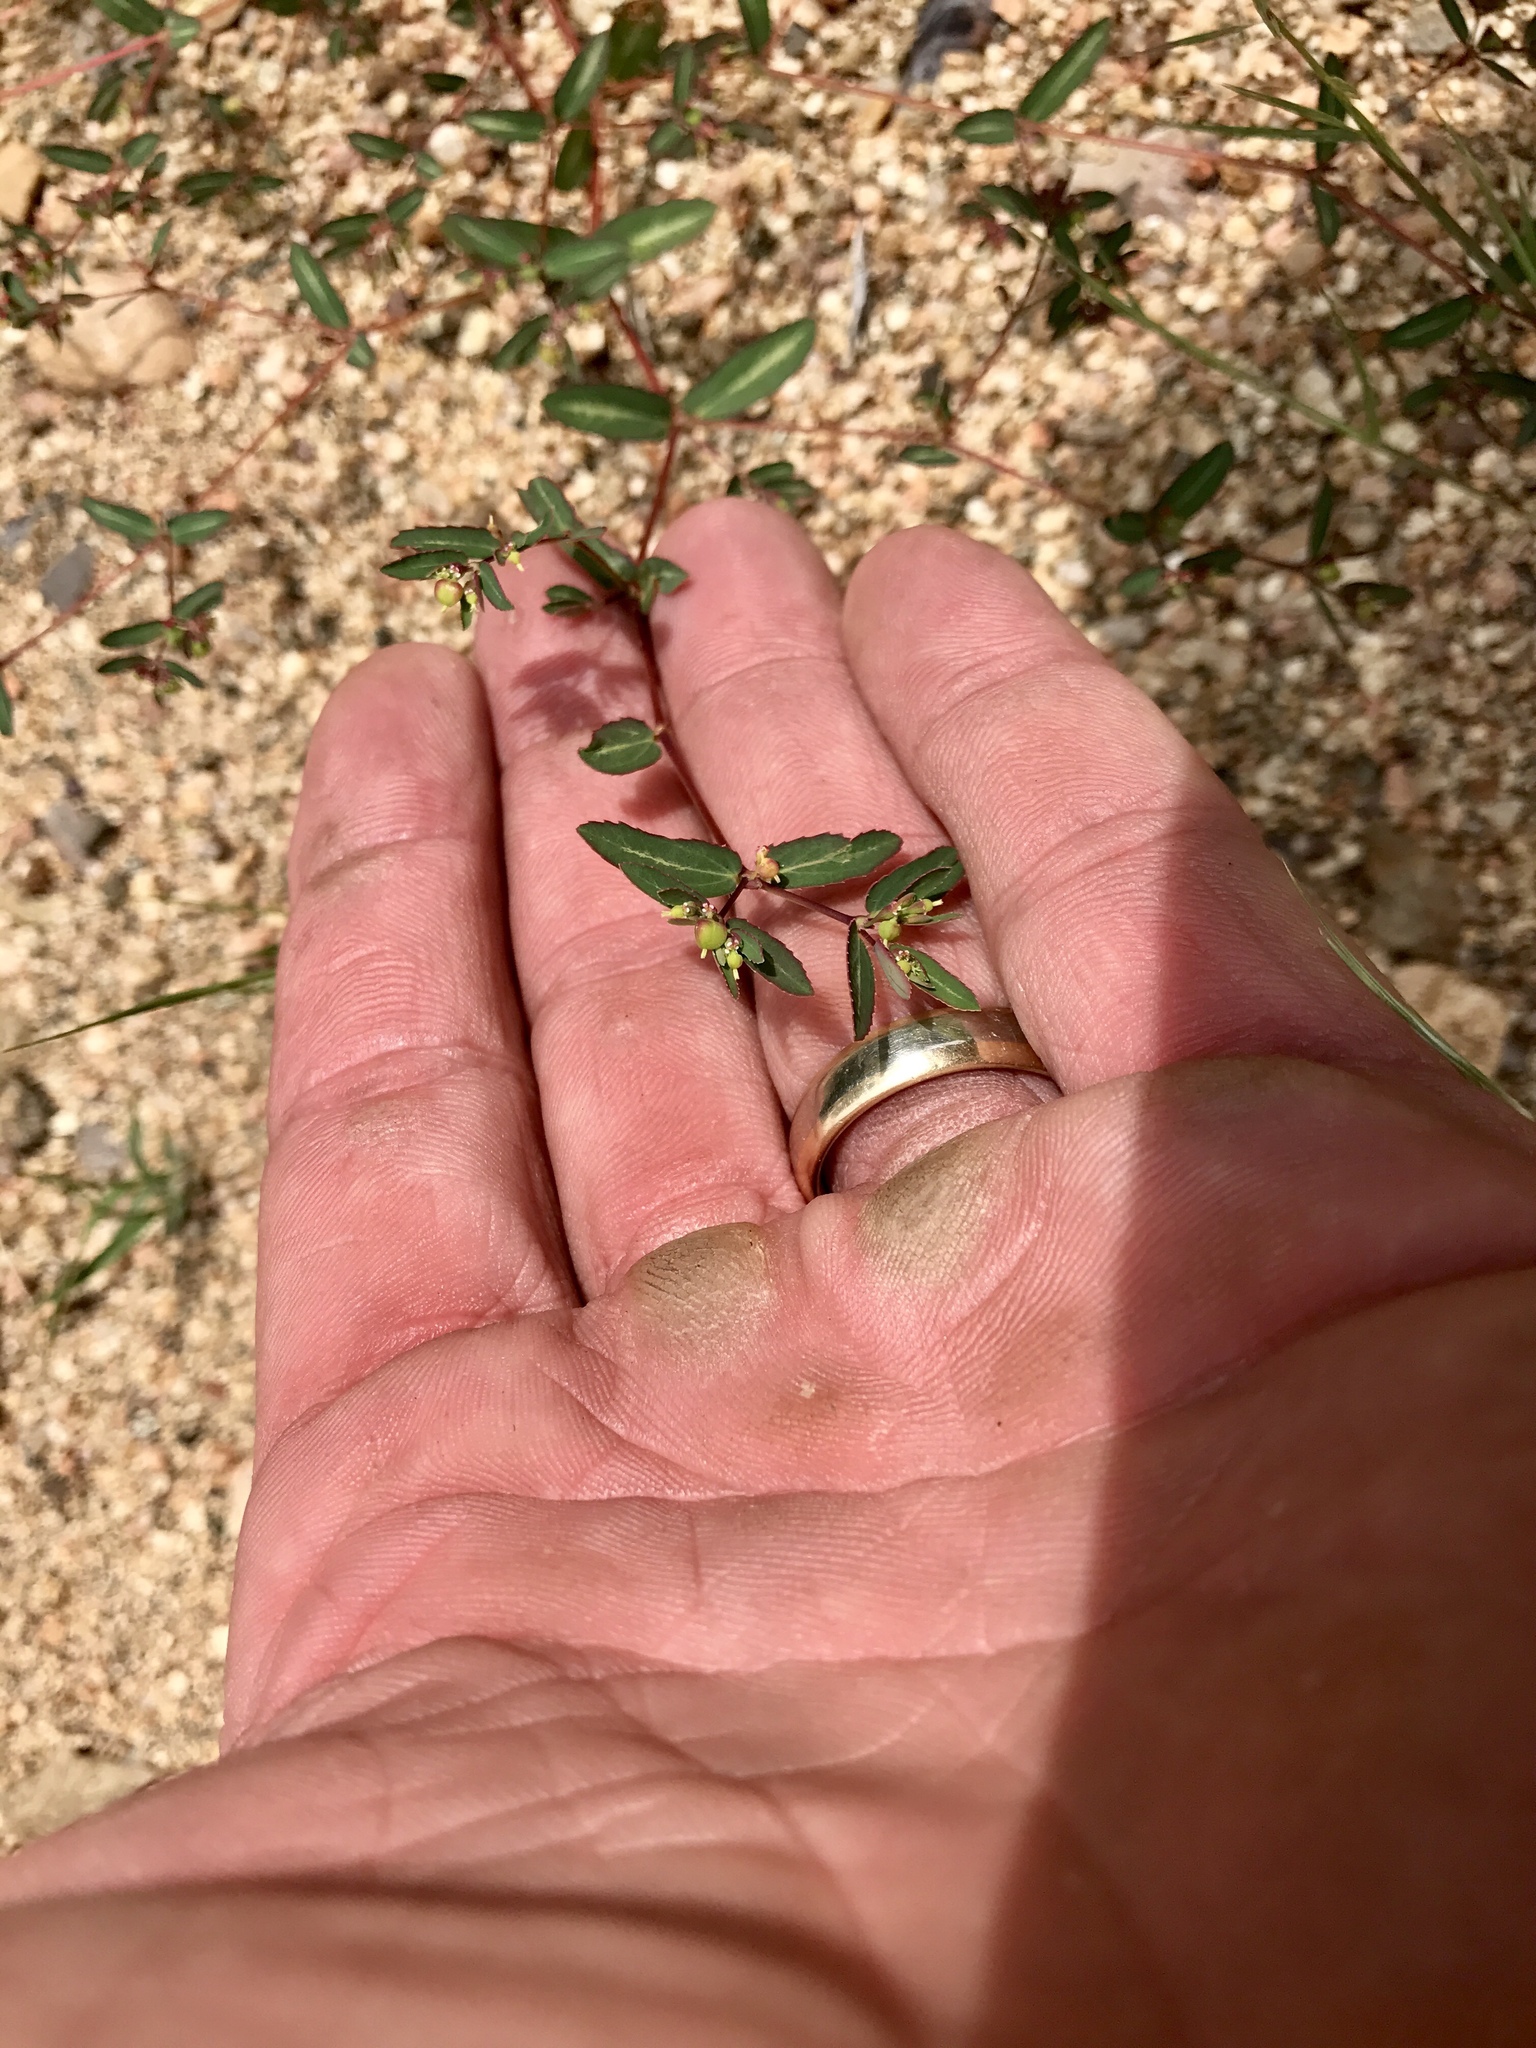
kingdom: Plantae
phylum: Tracheophyta
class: Magnoliopsida
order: Malpighiales
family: Euphorbiaceae
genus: Euphorbia
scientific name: Euphorbia hyssopifolia
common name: Hyssopleaf sandmat
